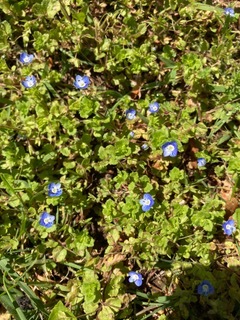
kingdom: Plantae
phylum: Tracheophyta
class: Magnoliopsida
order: Lamiales
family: Plantaginaceae
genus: Veronica
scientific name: Veronica persica
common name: Common field-speedwell
